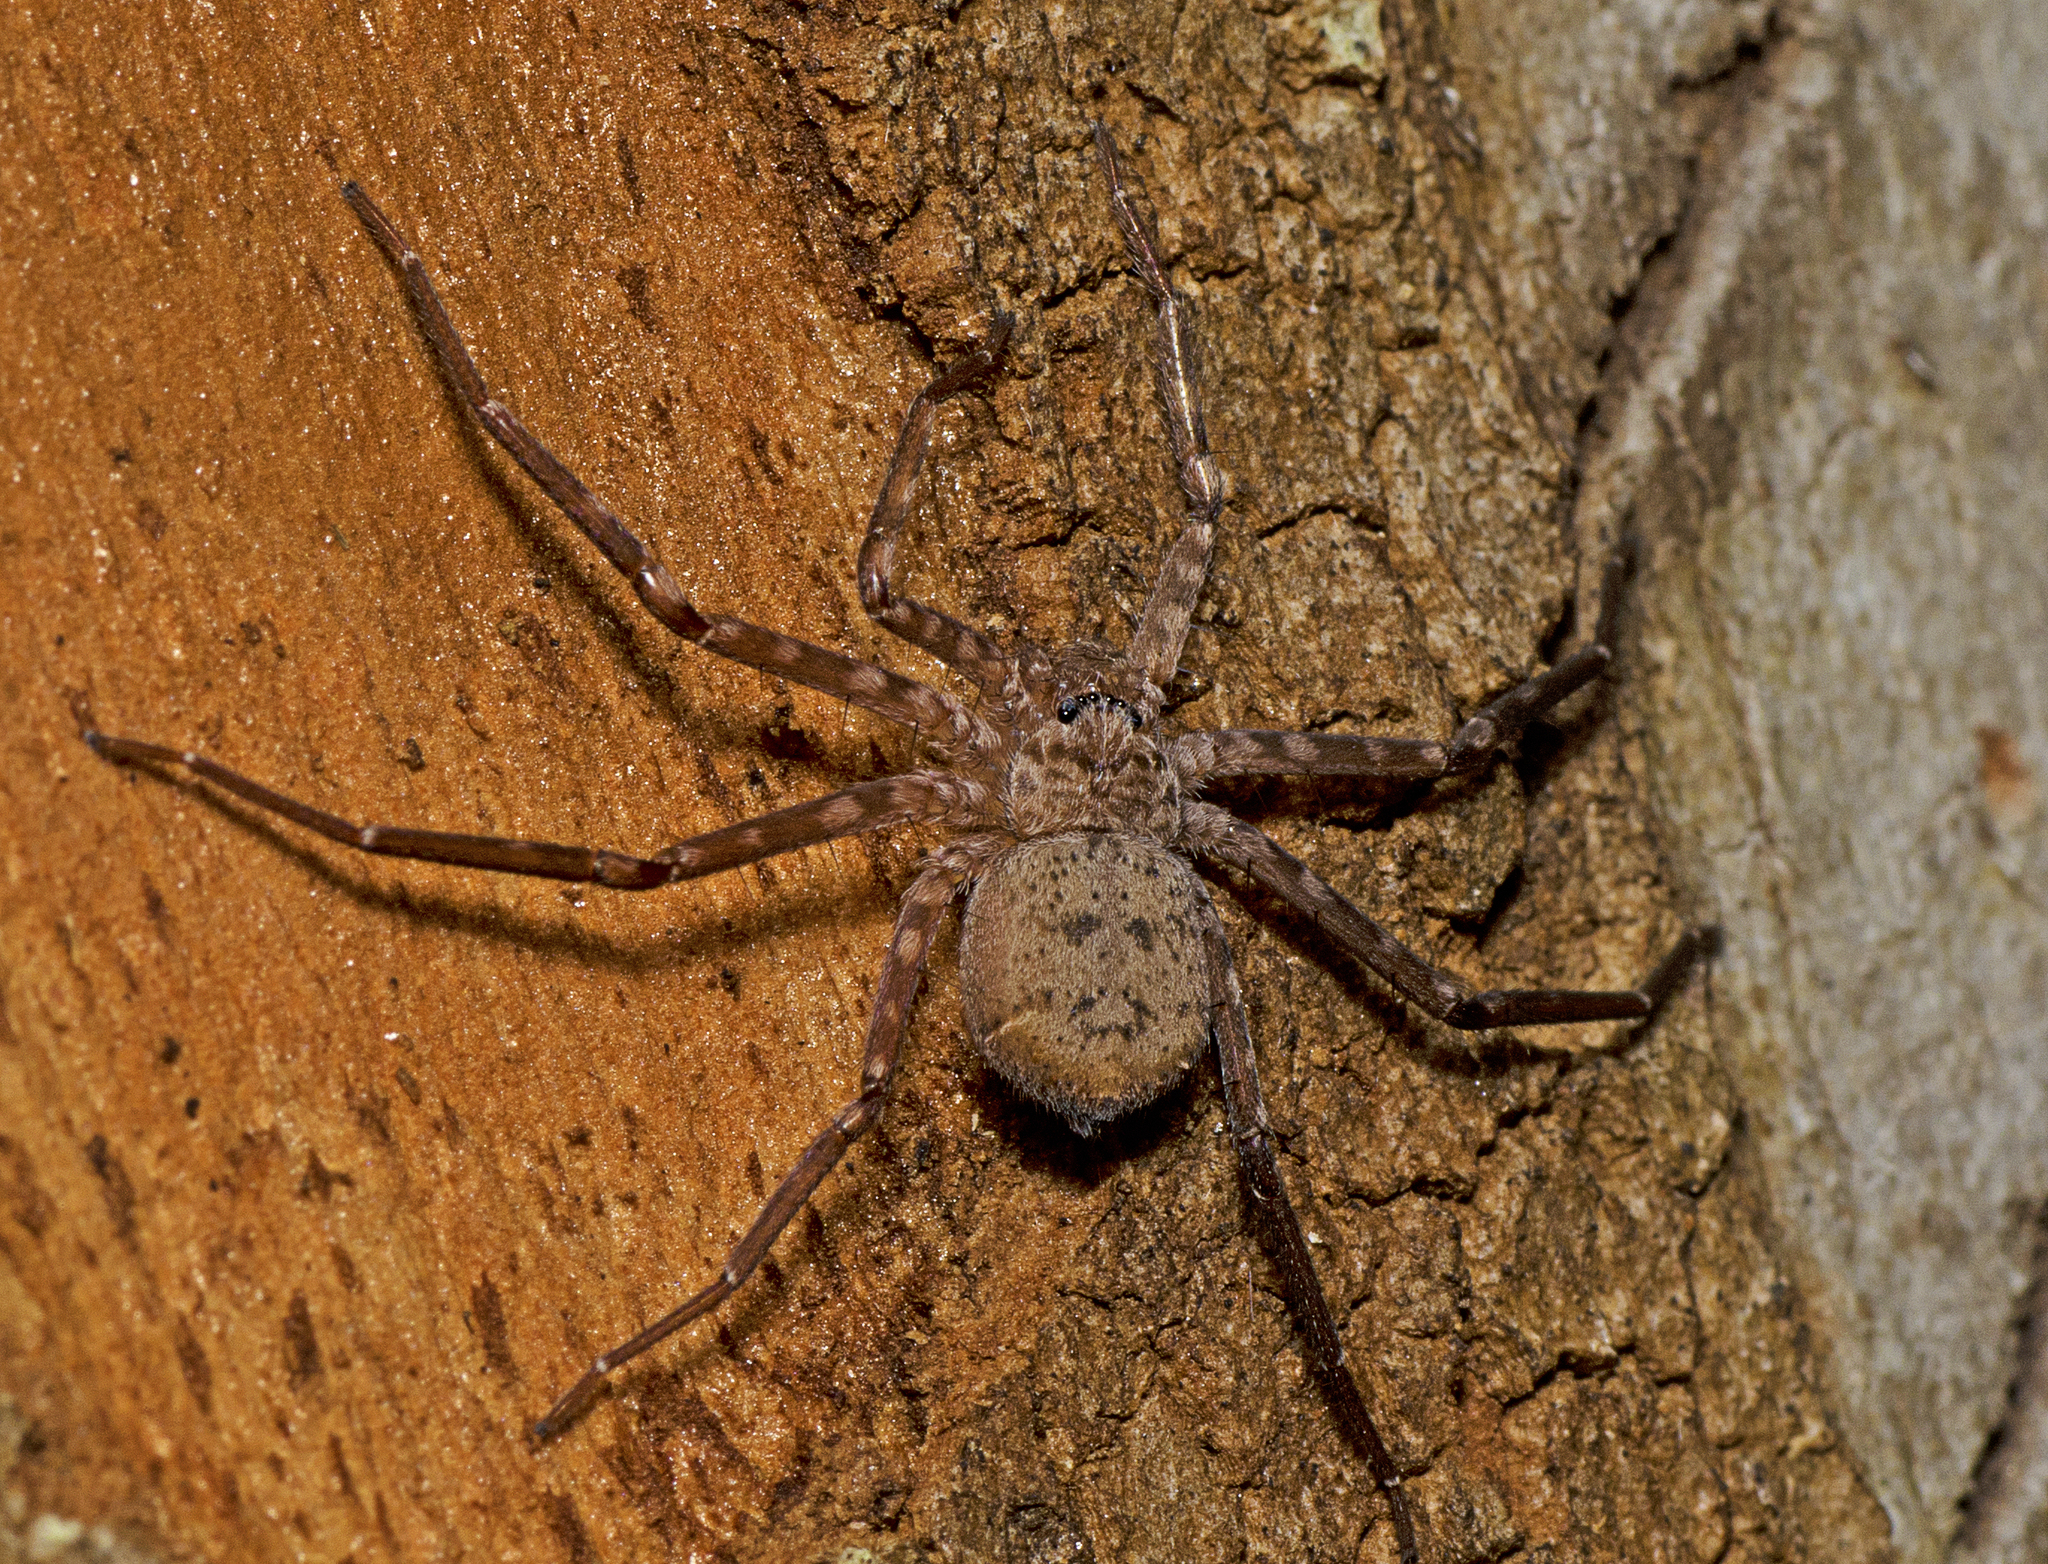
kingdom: Animalia
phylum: Arthropoda
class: Arachnida
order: Araneae
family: Selenopidae
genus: Karaops
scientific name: Karaops raveni
